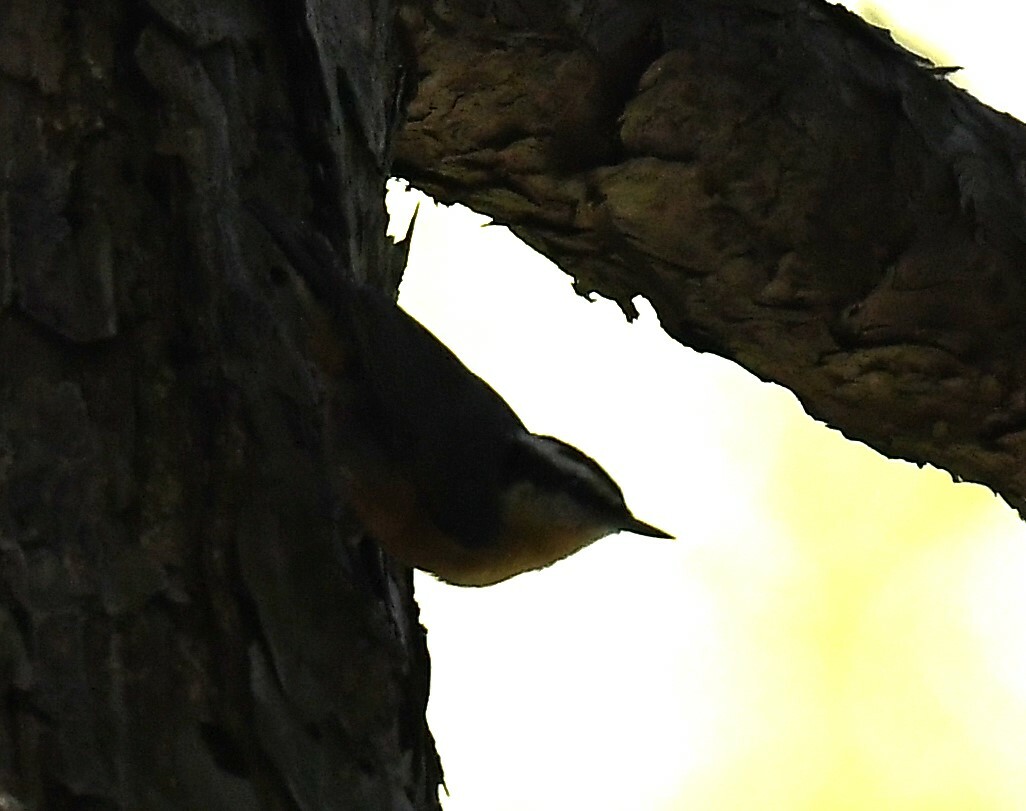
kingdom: Animalia
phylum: Chordata
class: Aves
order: Passeriformes
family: Sittidae
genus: Sitta
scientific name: Sitta canadensis
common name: Red-breasted nuthatch
